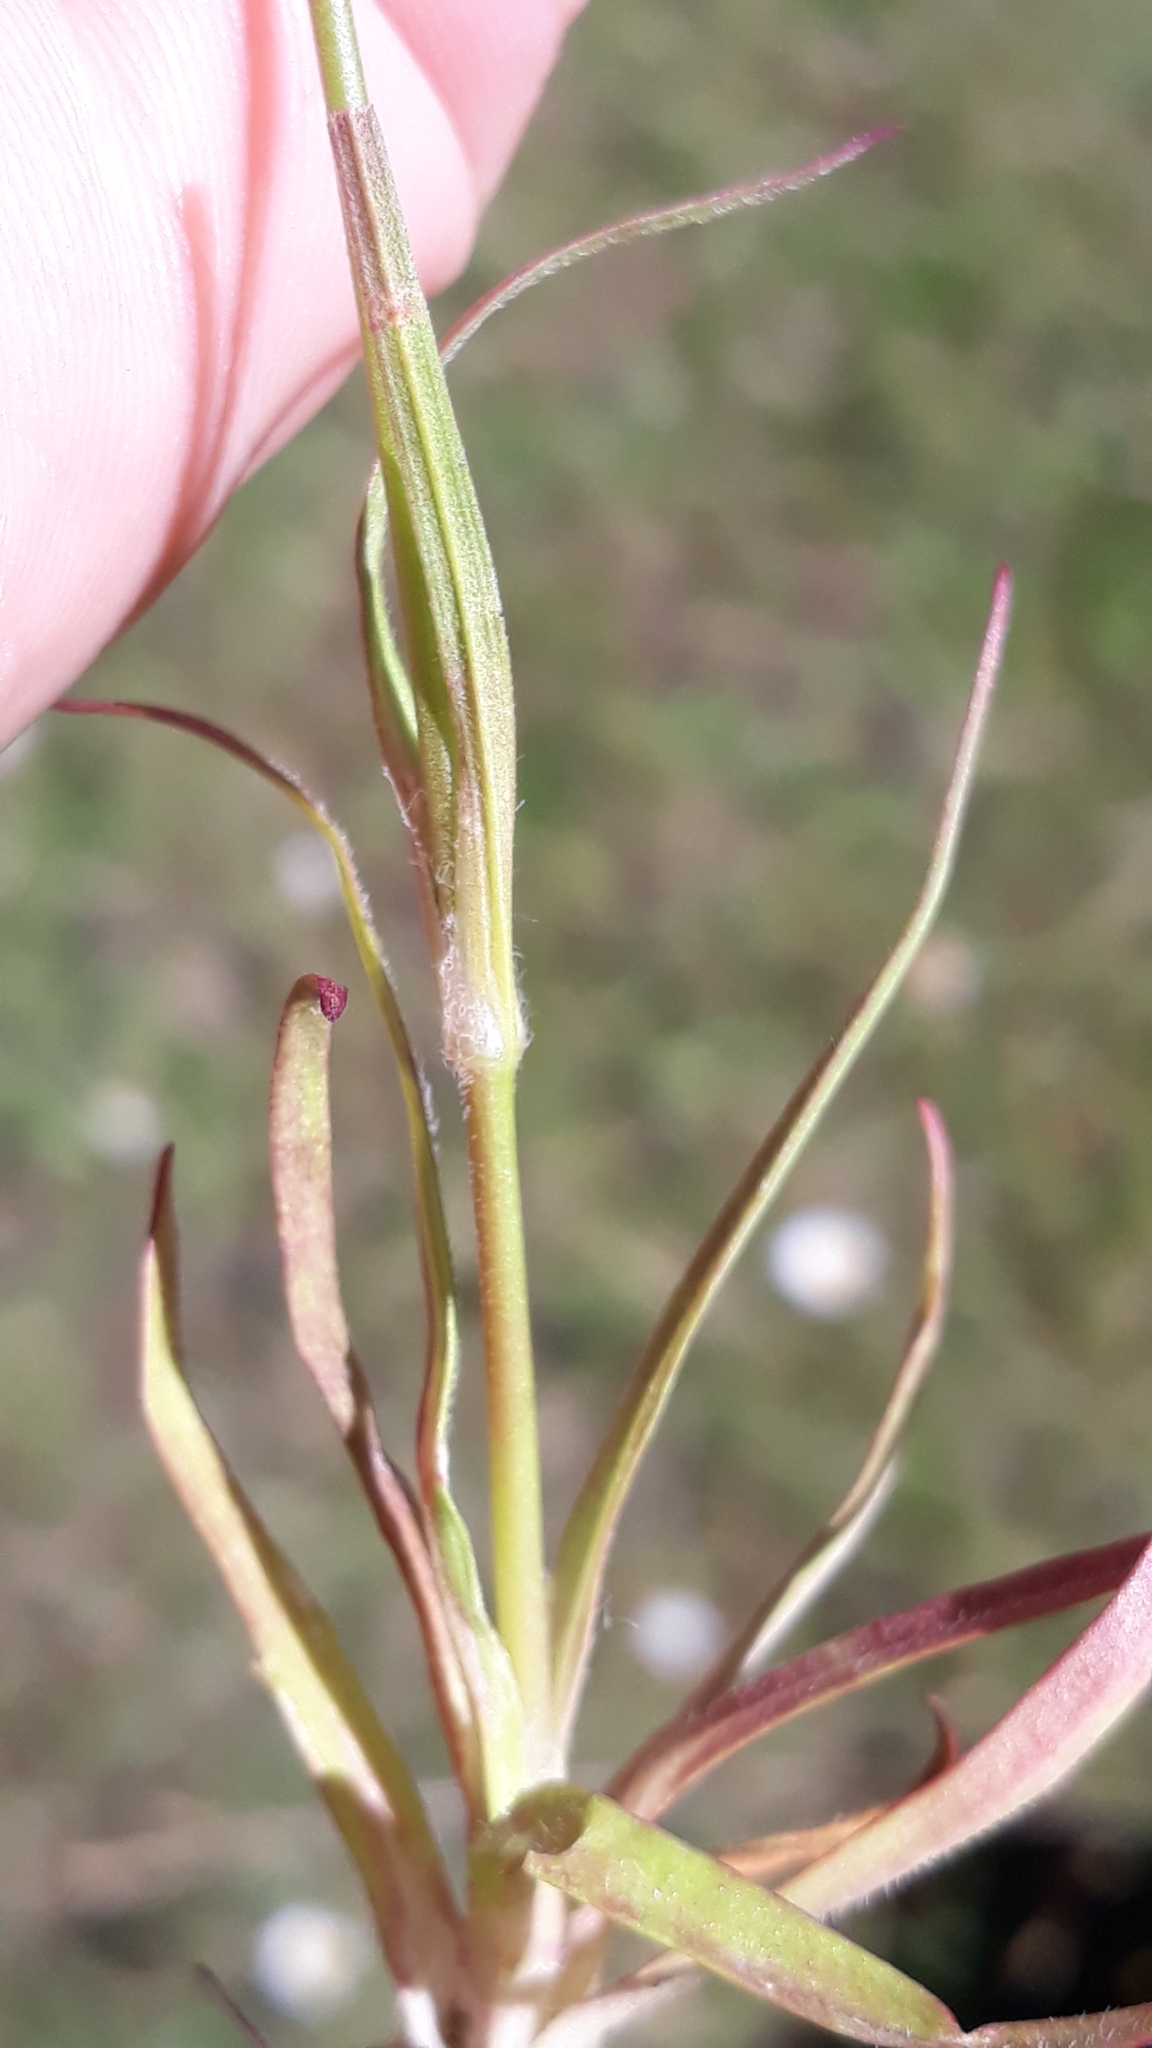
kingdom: Plantae
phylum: Tracheophyta
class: Magnoliopsida
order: Caryophyllales
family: Caryophyllaceae
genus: Dianthus
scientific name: Dianthus armeria
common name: Deptford pink
